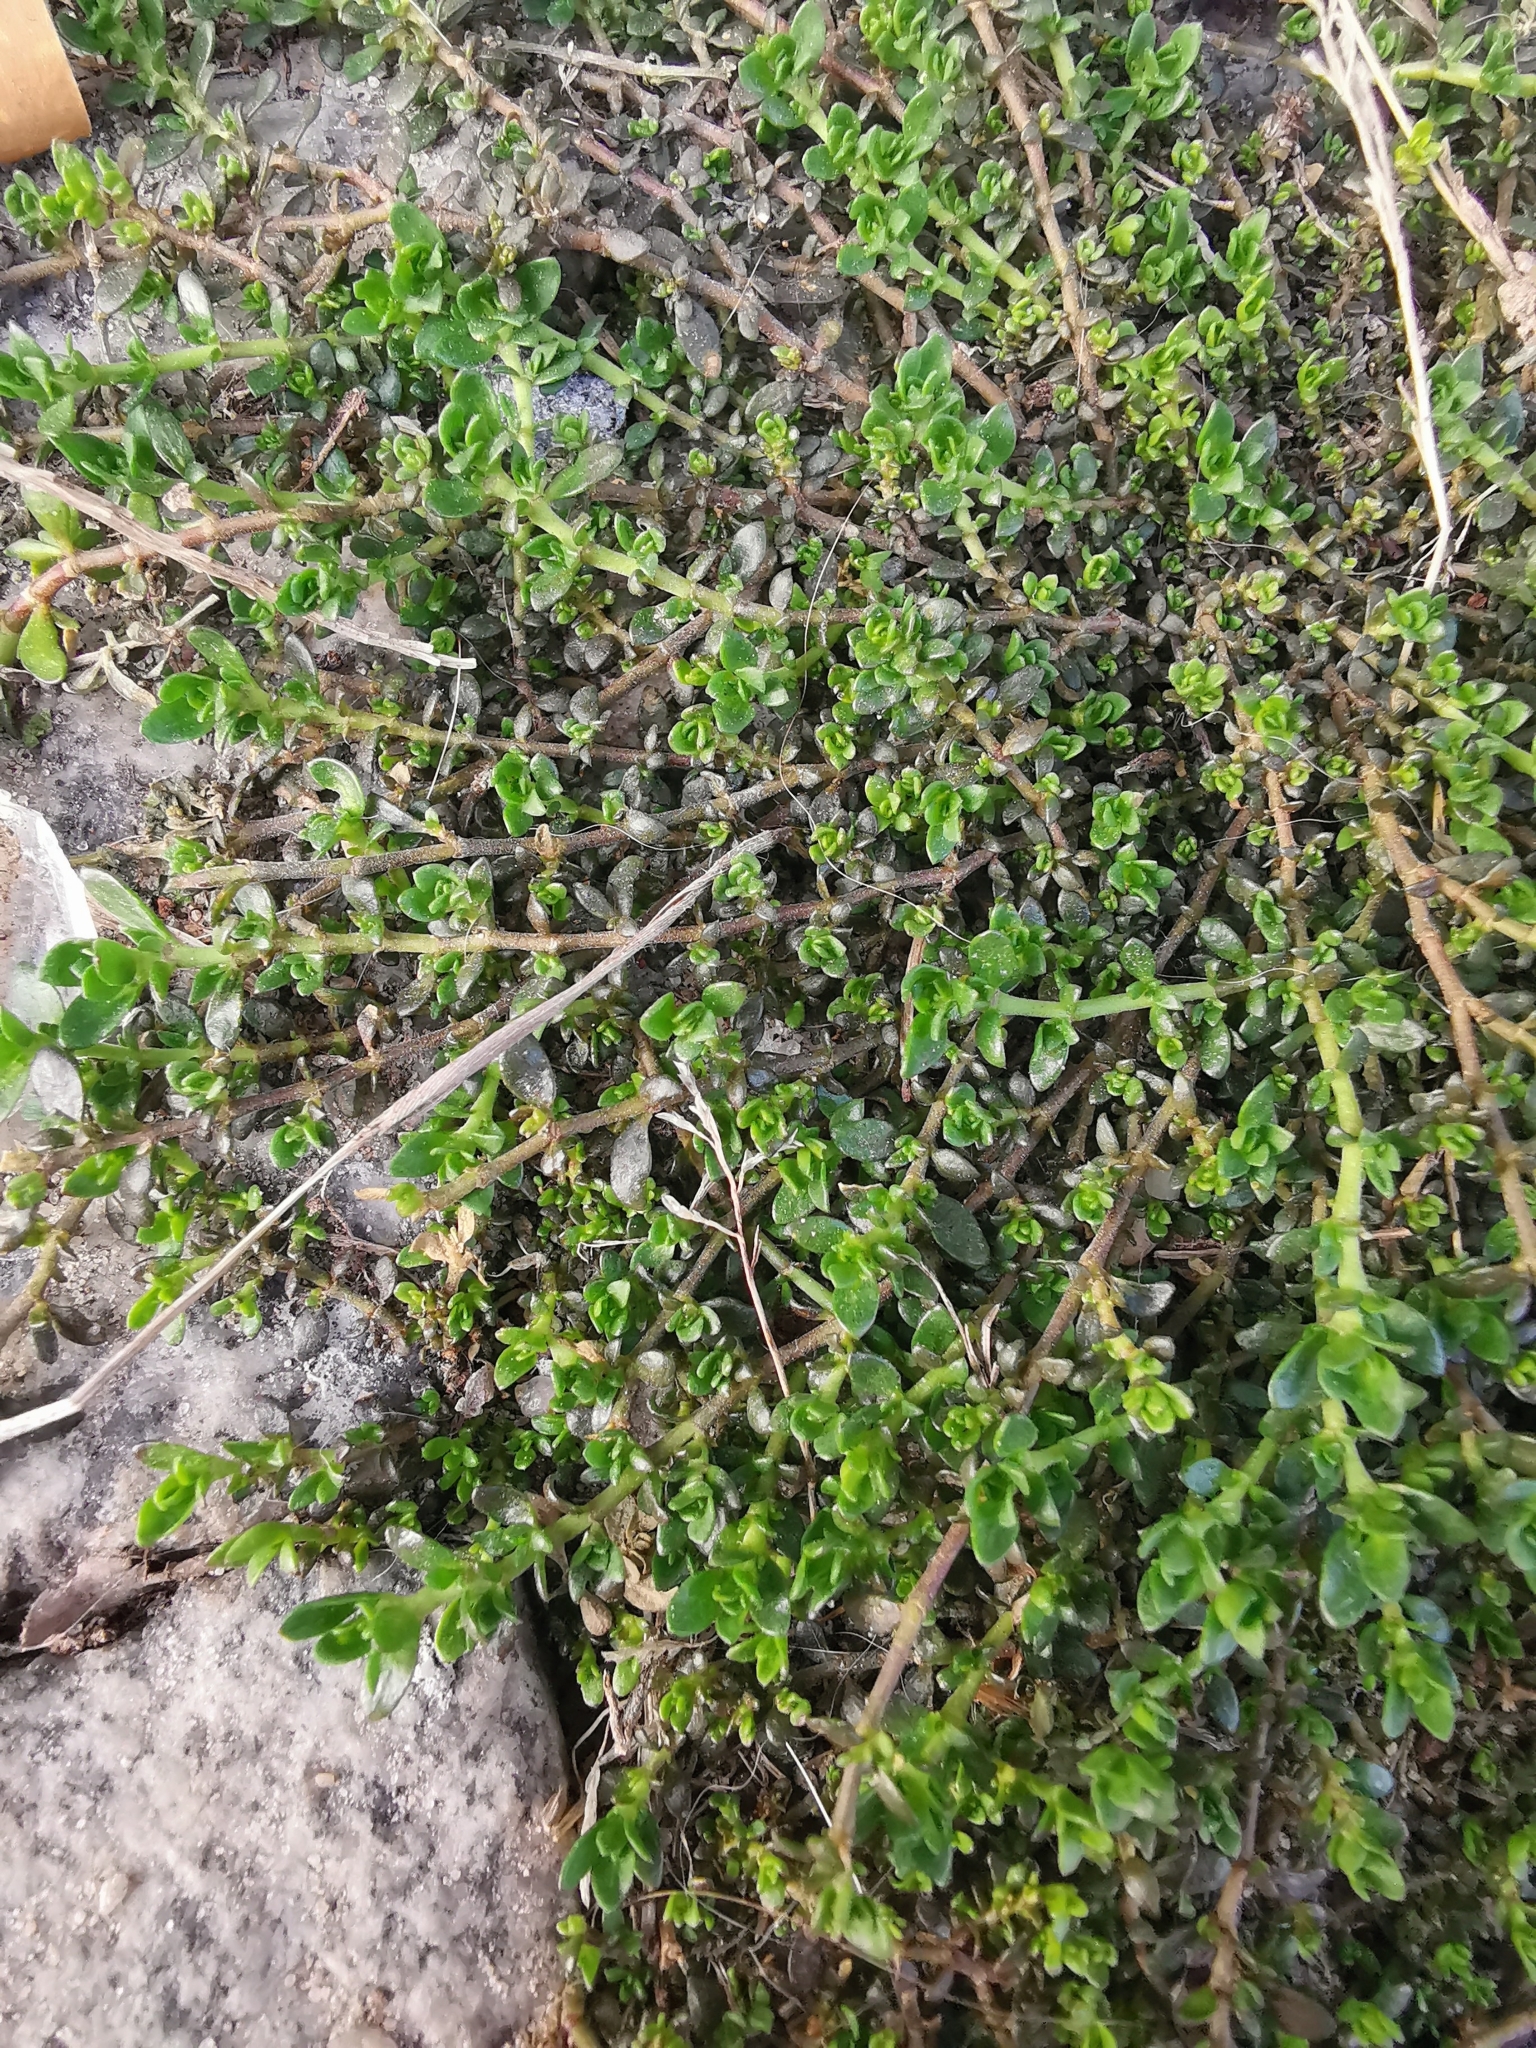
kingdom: Plantae
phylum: Tracheophyta
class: Magnoliopsida
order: Caryophyllales
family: Caryophyllaceae
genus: Herniaria
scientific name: Herniaria glabra
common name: Smooth rupturewort
